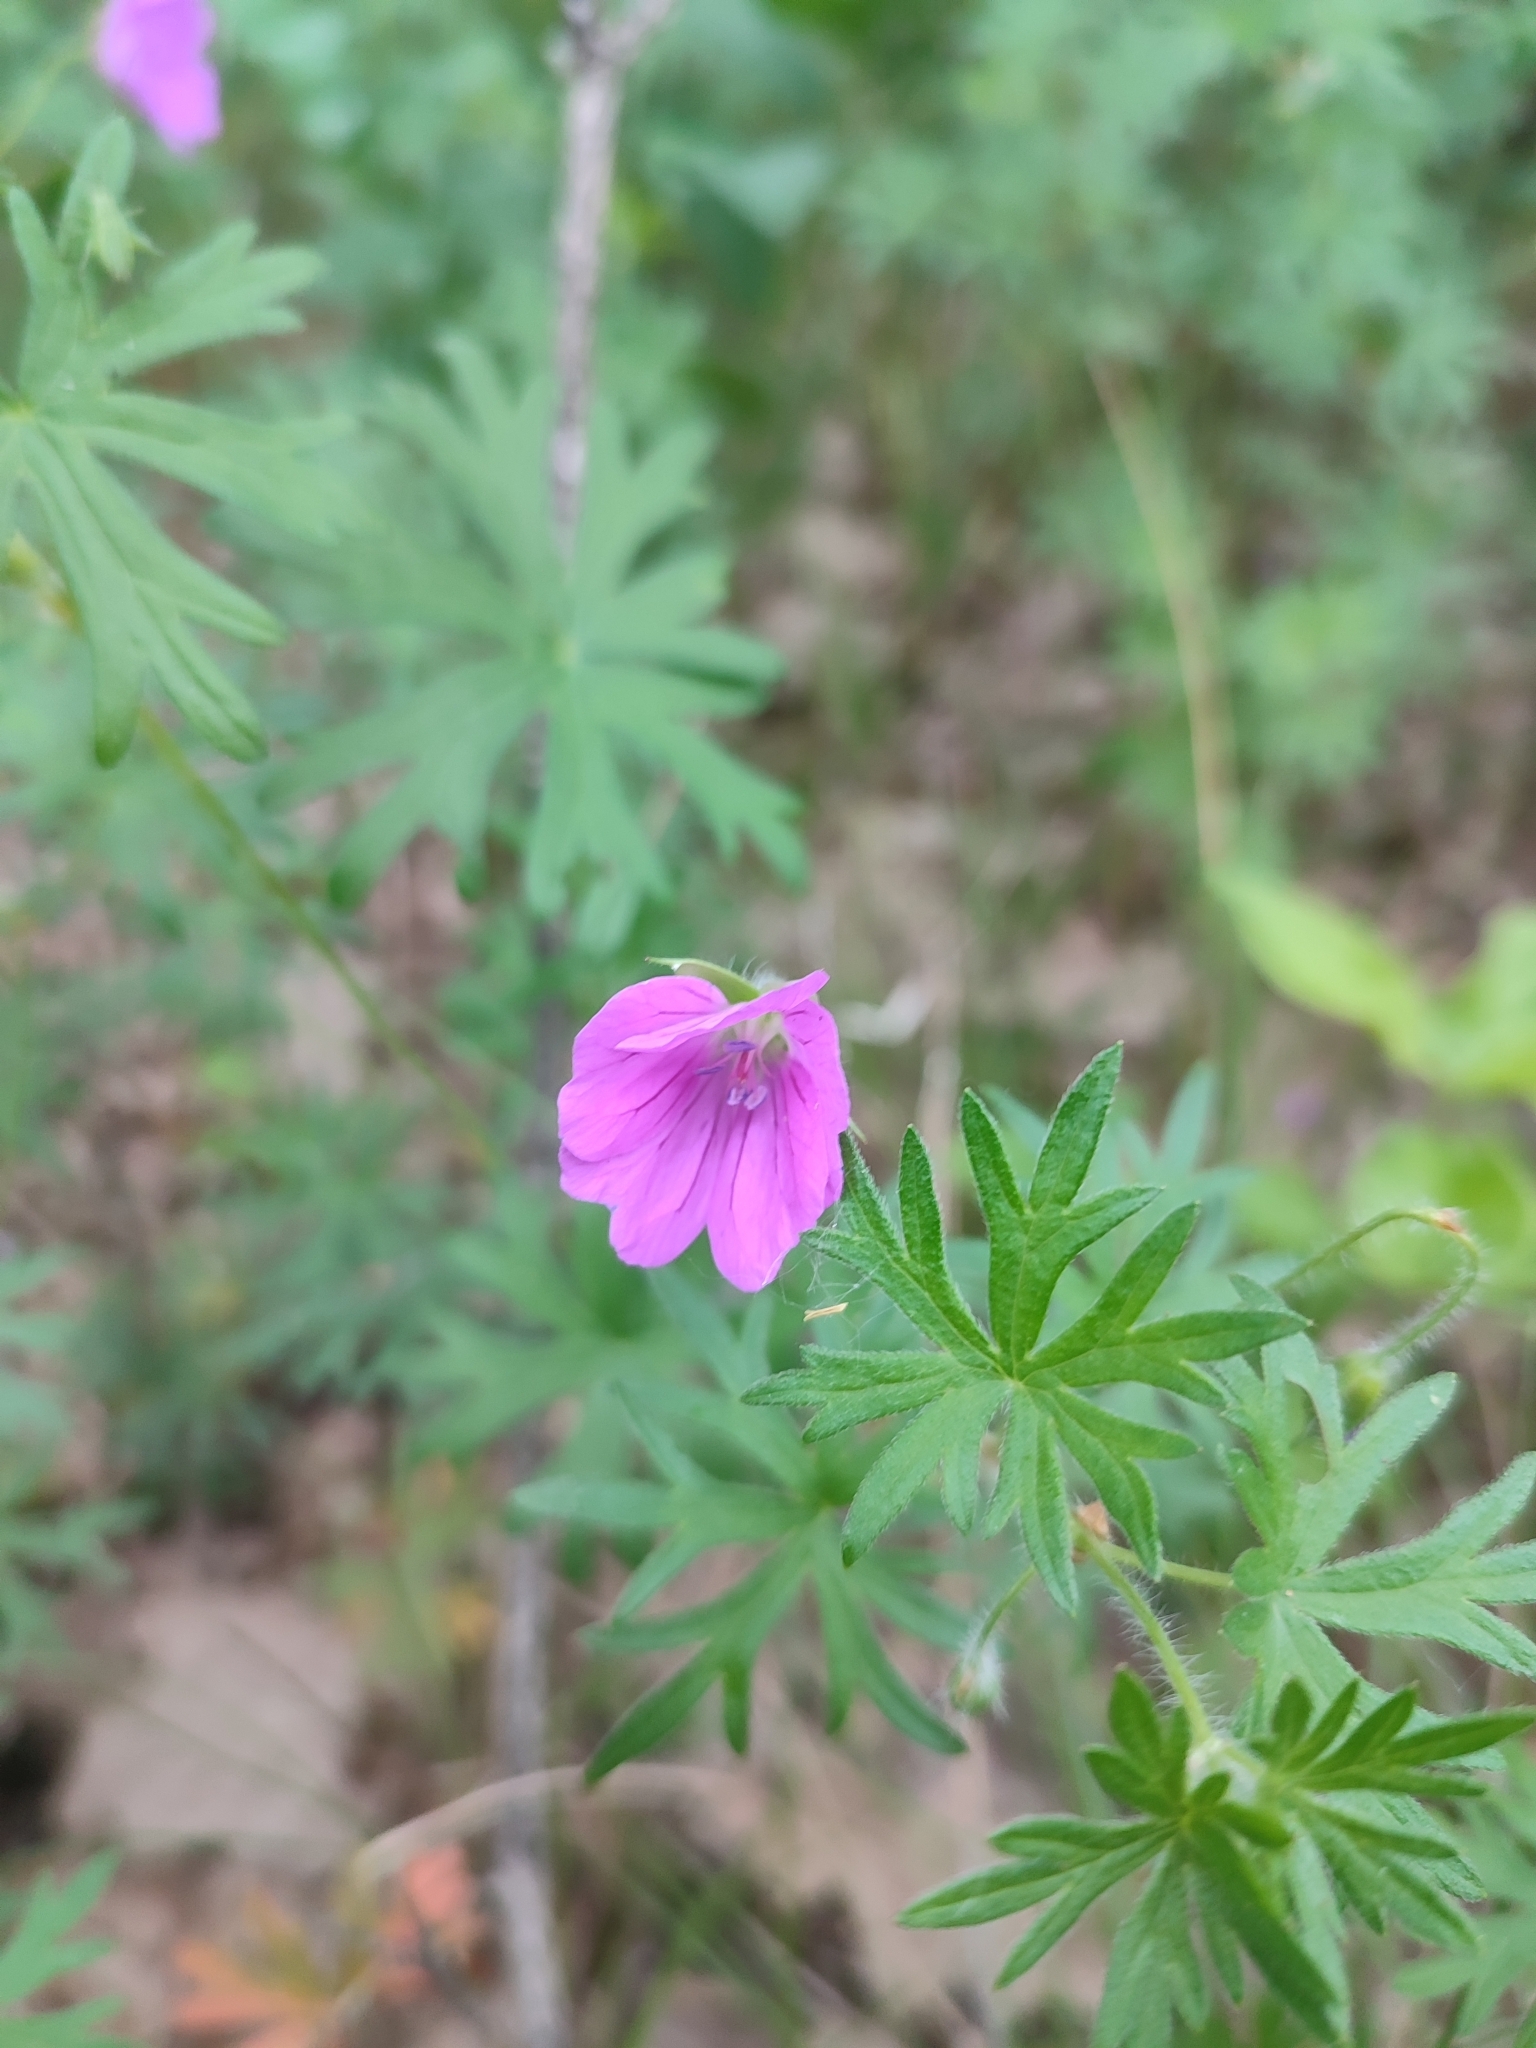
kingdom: Plantae
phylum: Tracheophyta
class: Magnoliopsida
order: Geraniales
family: Geraniaceae
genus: Geranium
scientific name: Geranium sanguineum
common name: Bloody crane's-bill
